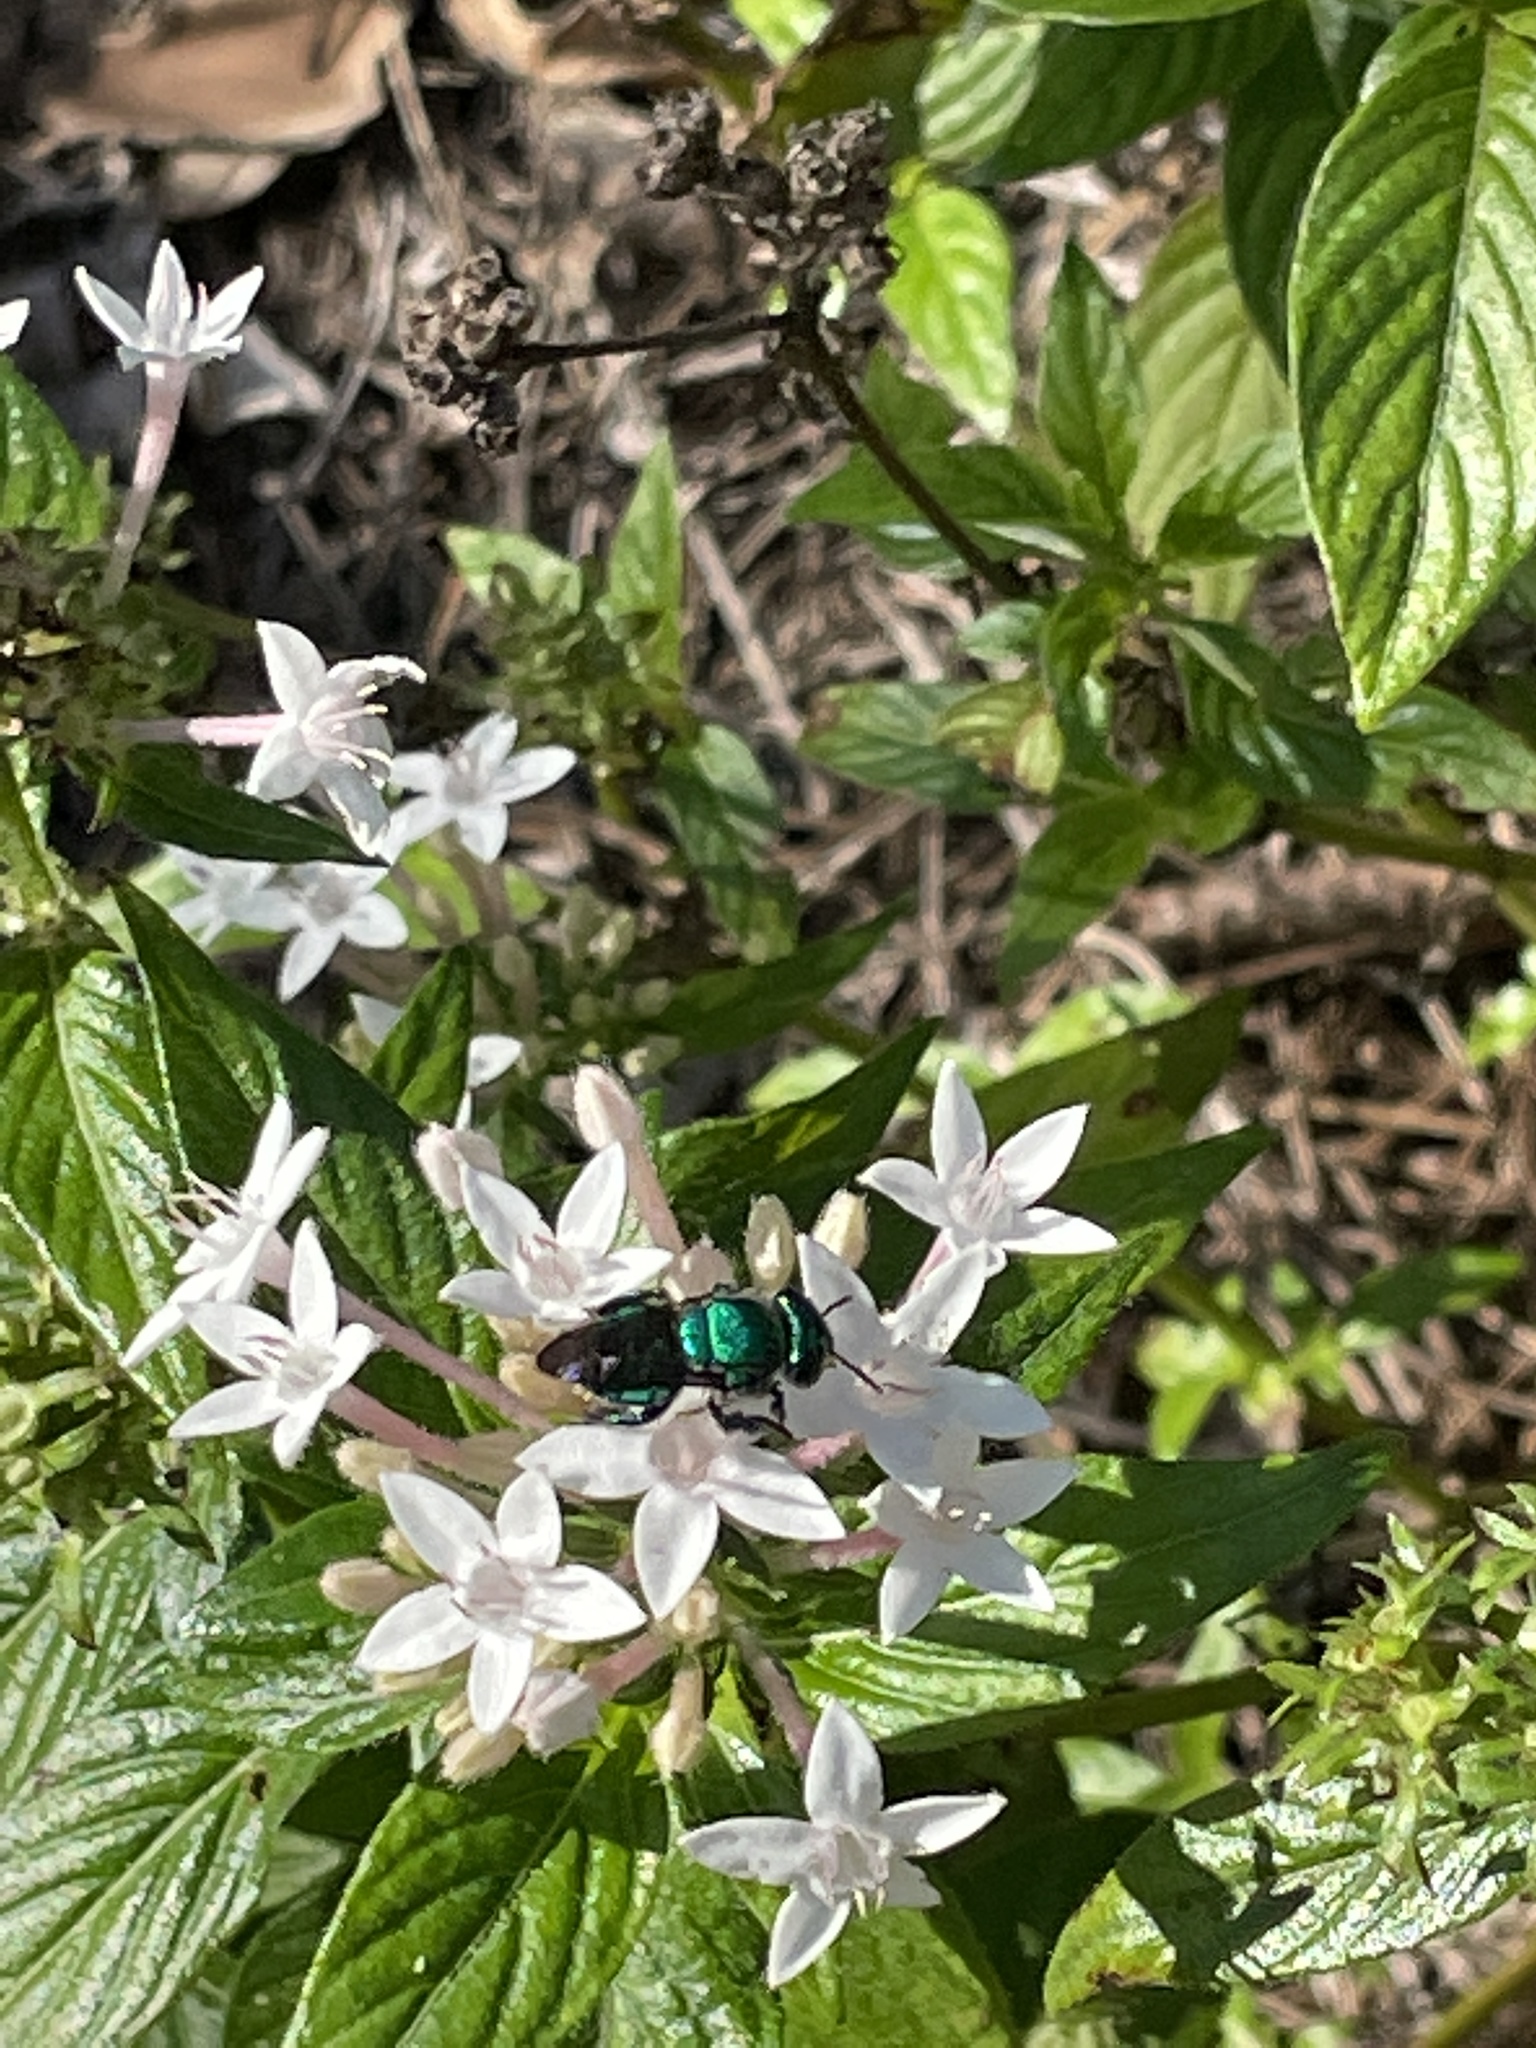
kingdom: Animalia
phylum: Arthropoda
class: Insecta
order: Hymenoptera
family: Apidae
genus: Euglossa
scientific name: Euglossa dilemma
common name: Green orchid bee
